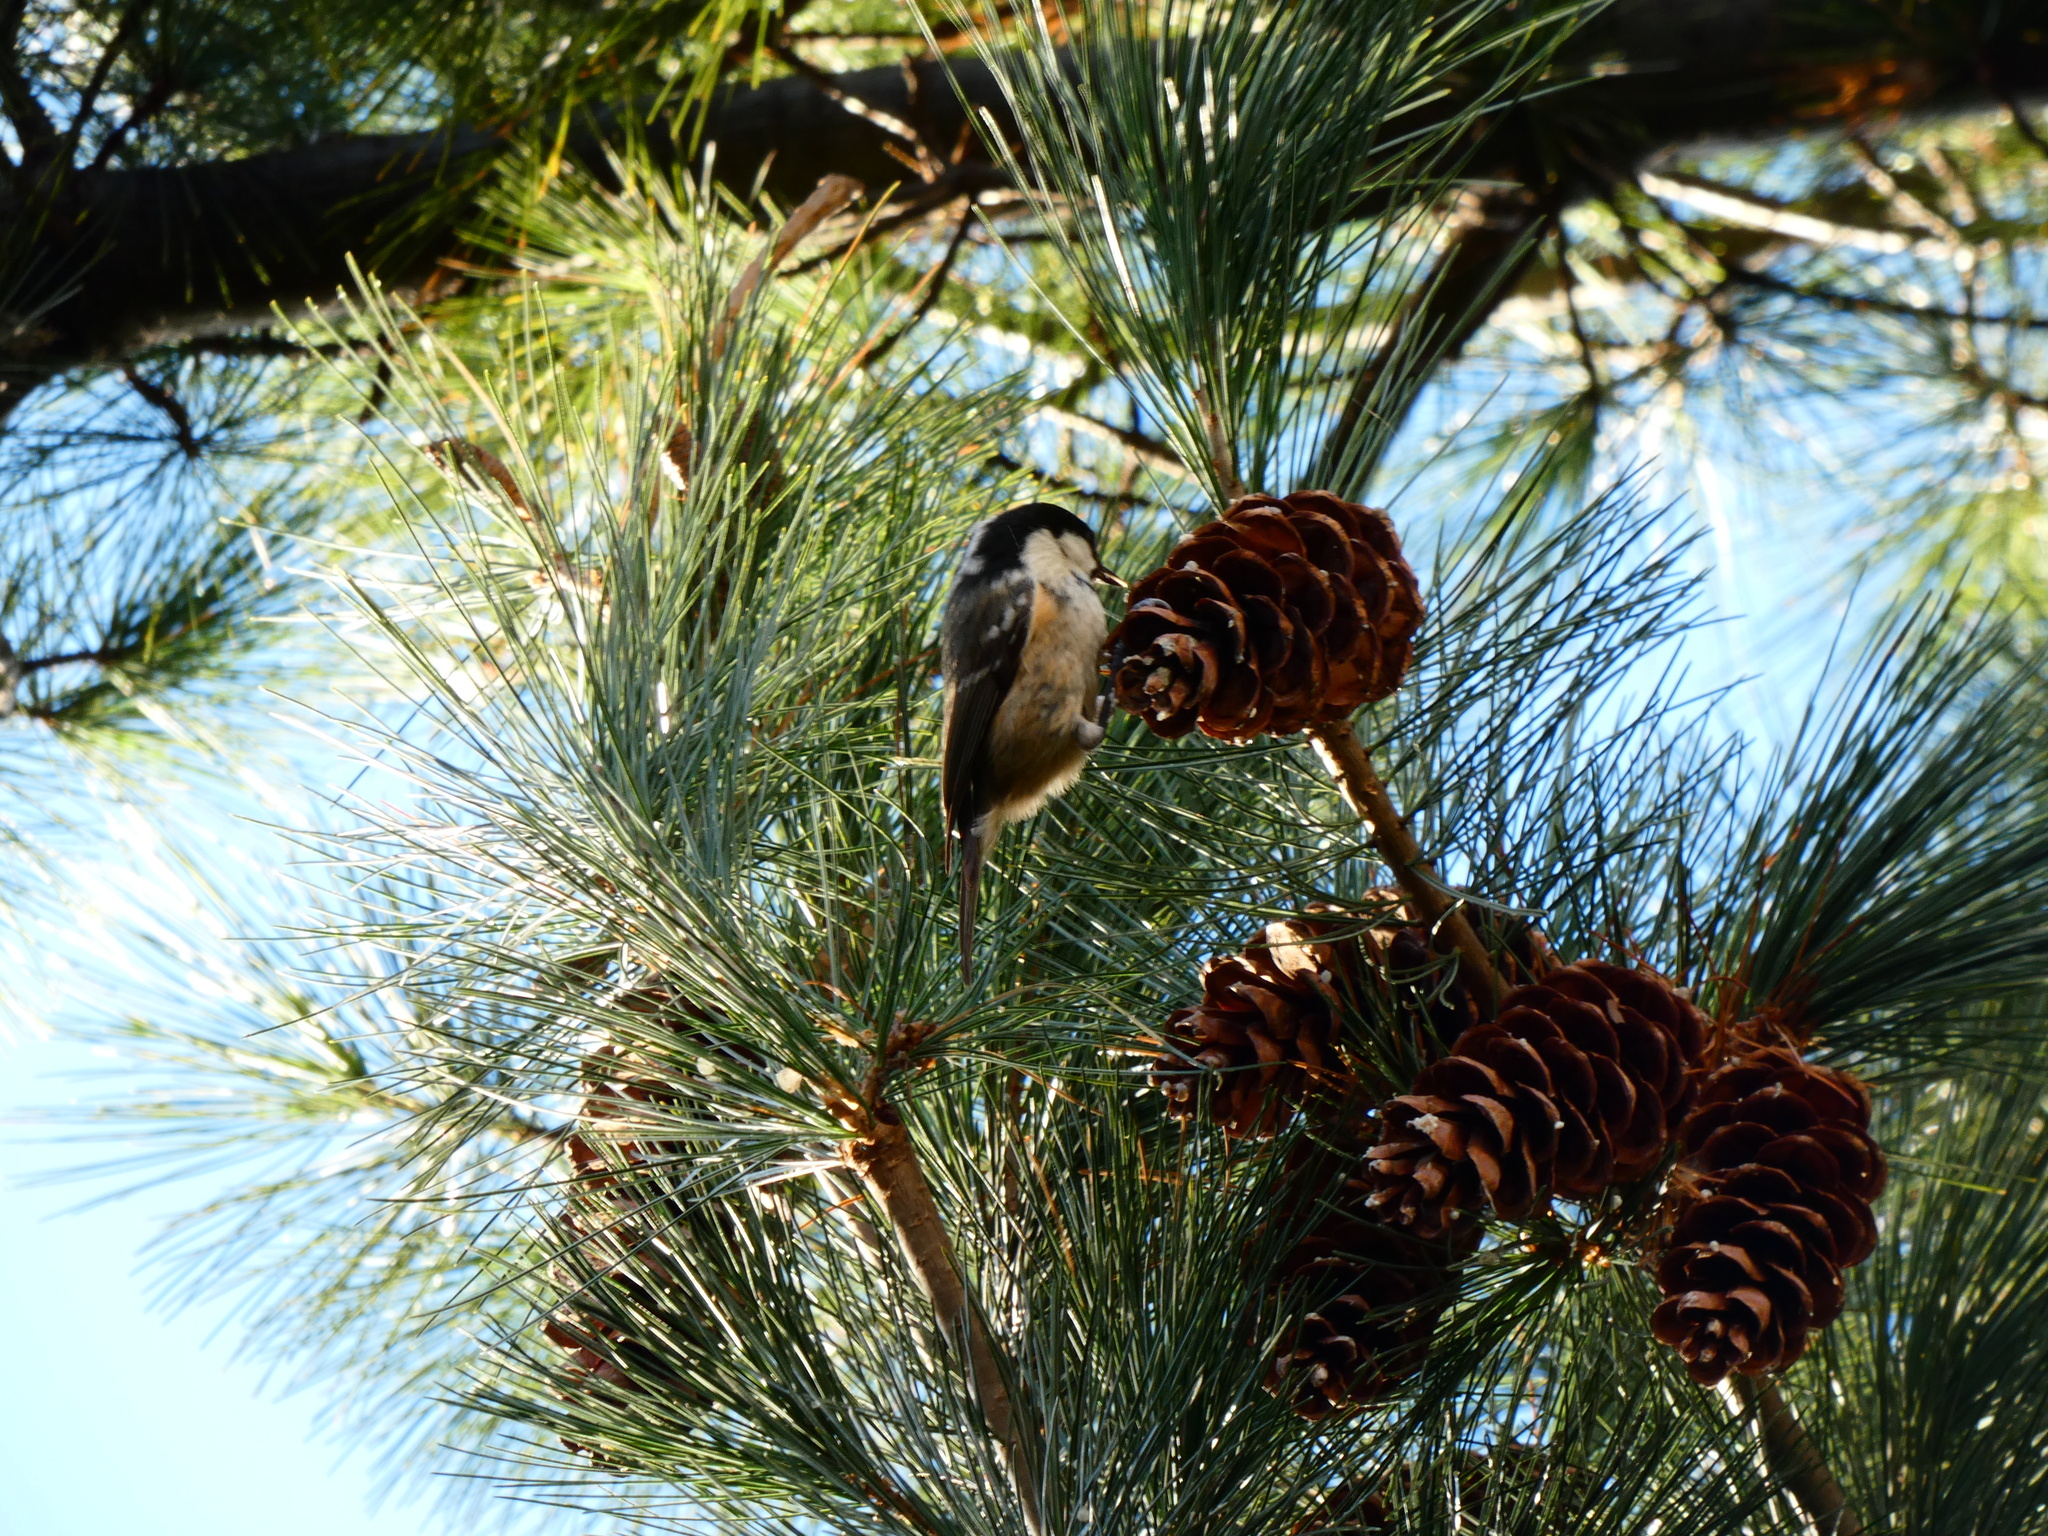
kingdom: Animalia
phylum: Chordata
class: Aves
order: Passeriformes
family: Paridae
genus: Periparus
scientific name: Periparus ater
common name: Coal tit
